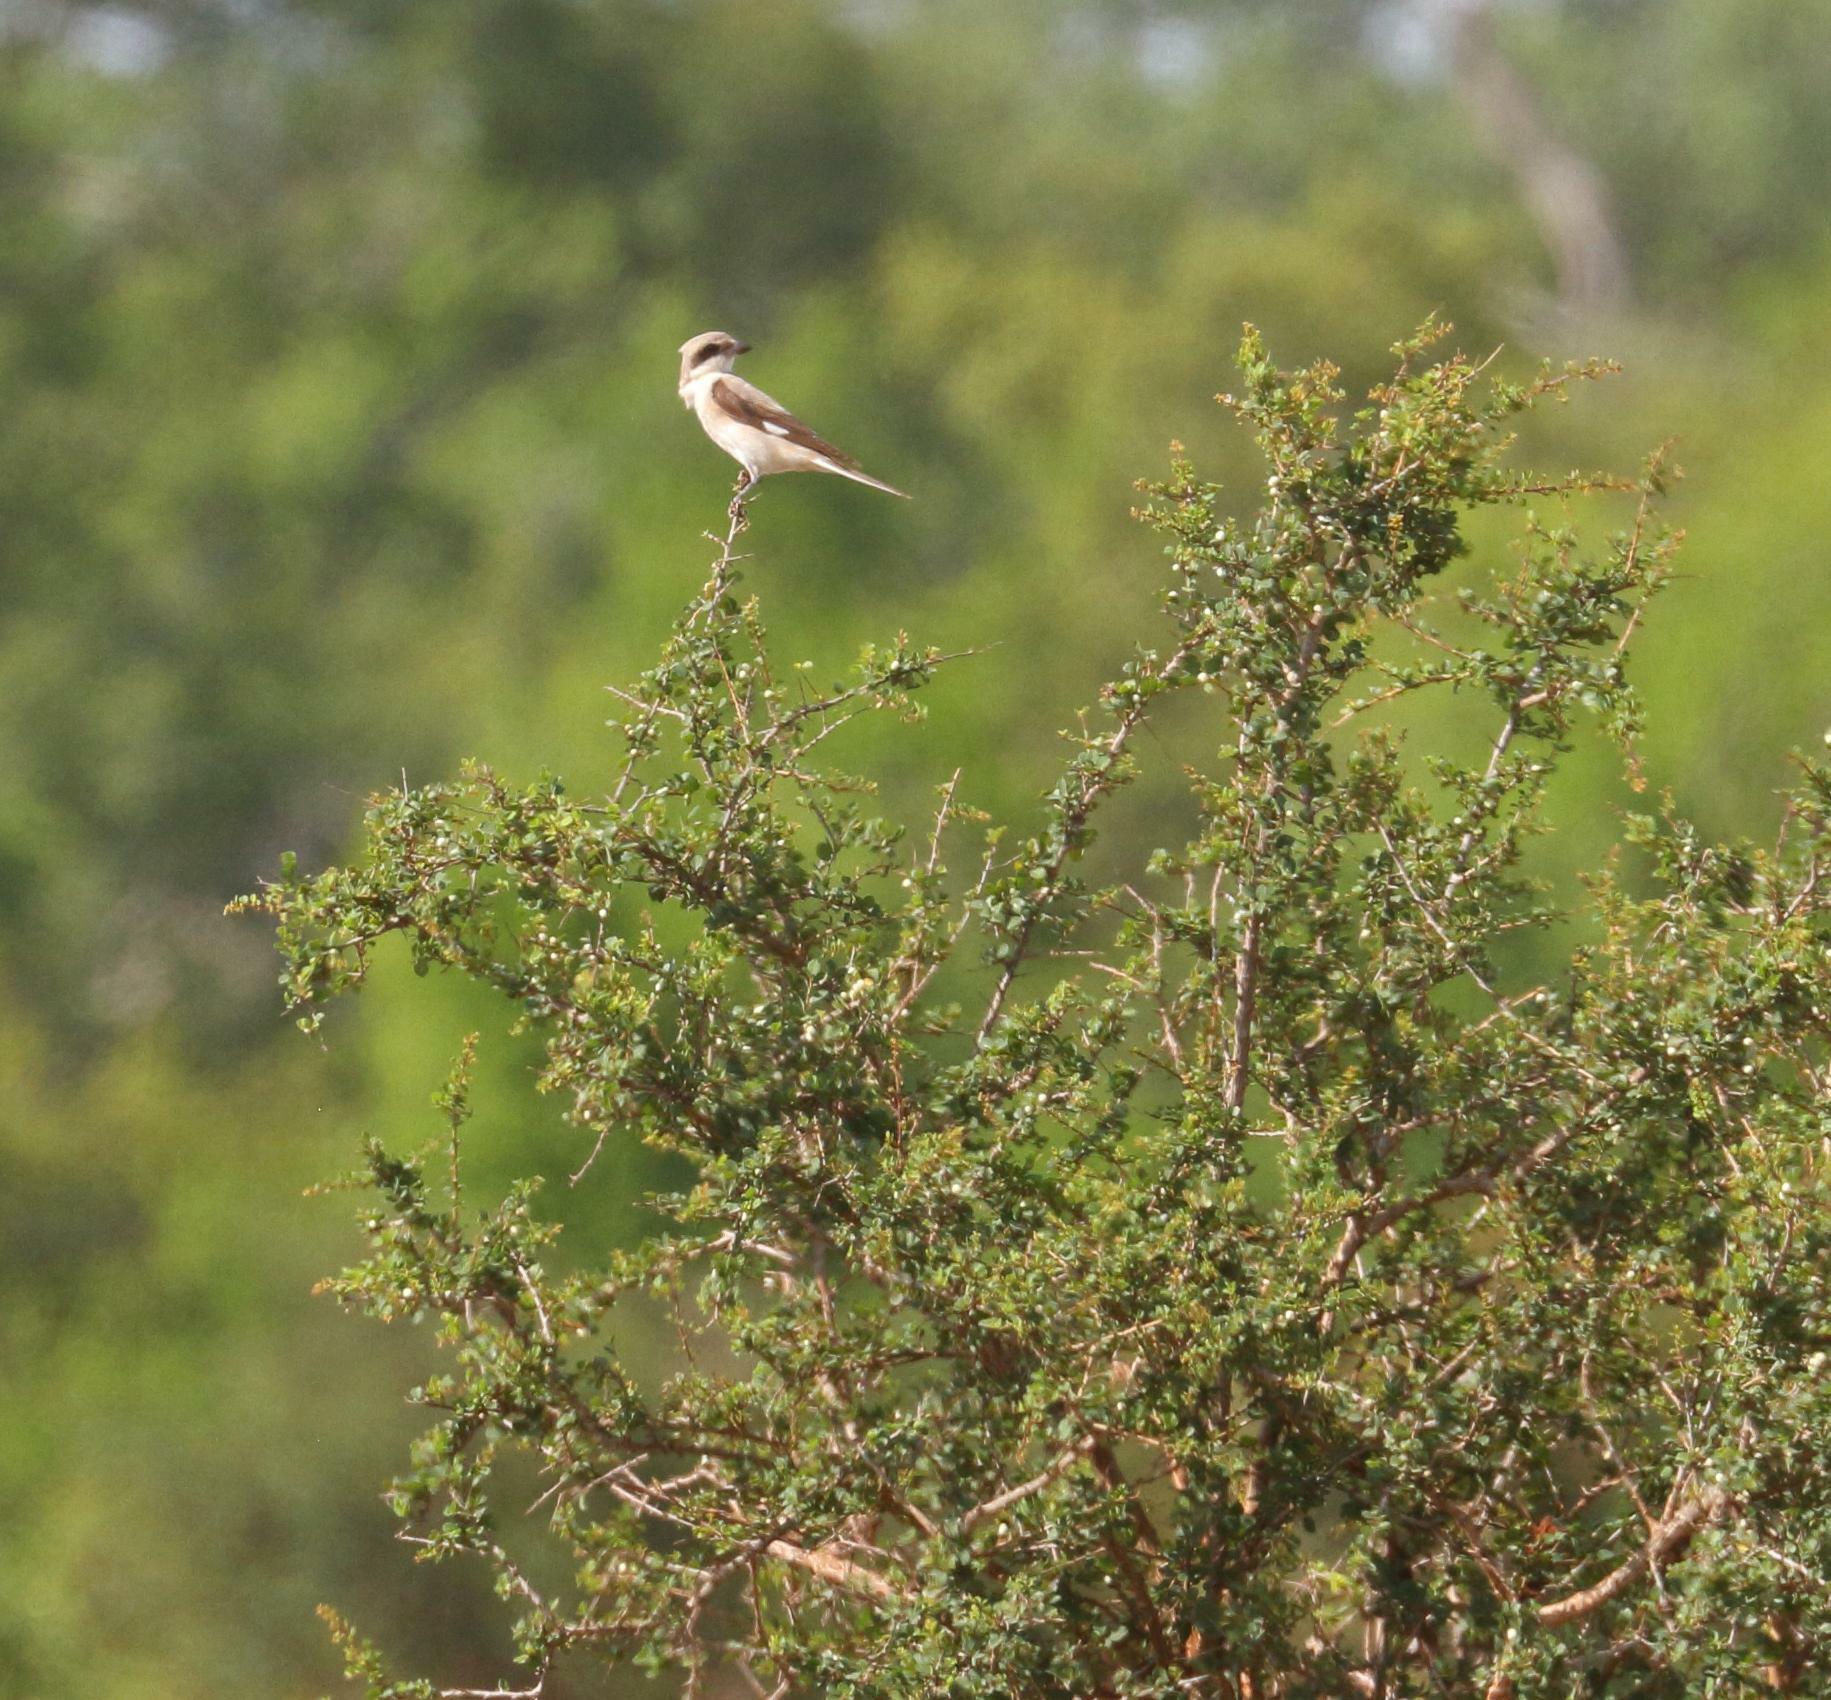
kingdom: Animalia
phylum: Chordata
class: Aves
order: Passeriformes
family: Laniidae
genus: Lanius
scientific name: Lanius minor
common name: Lesser grey shrike
